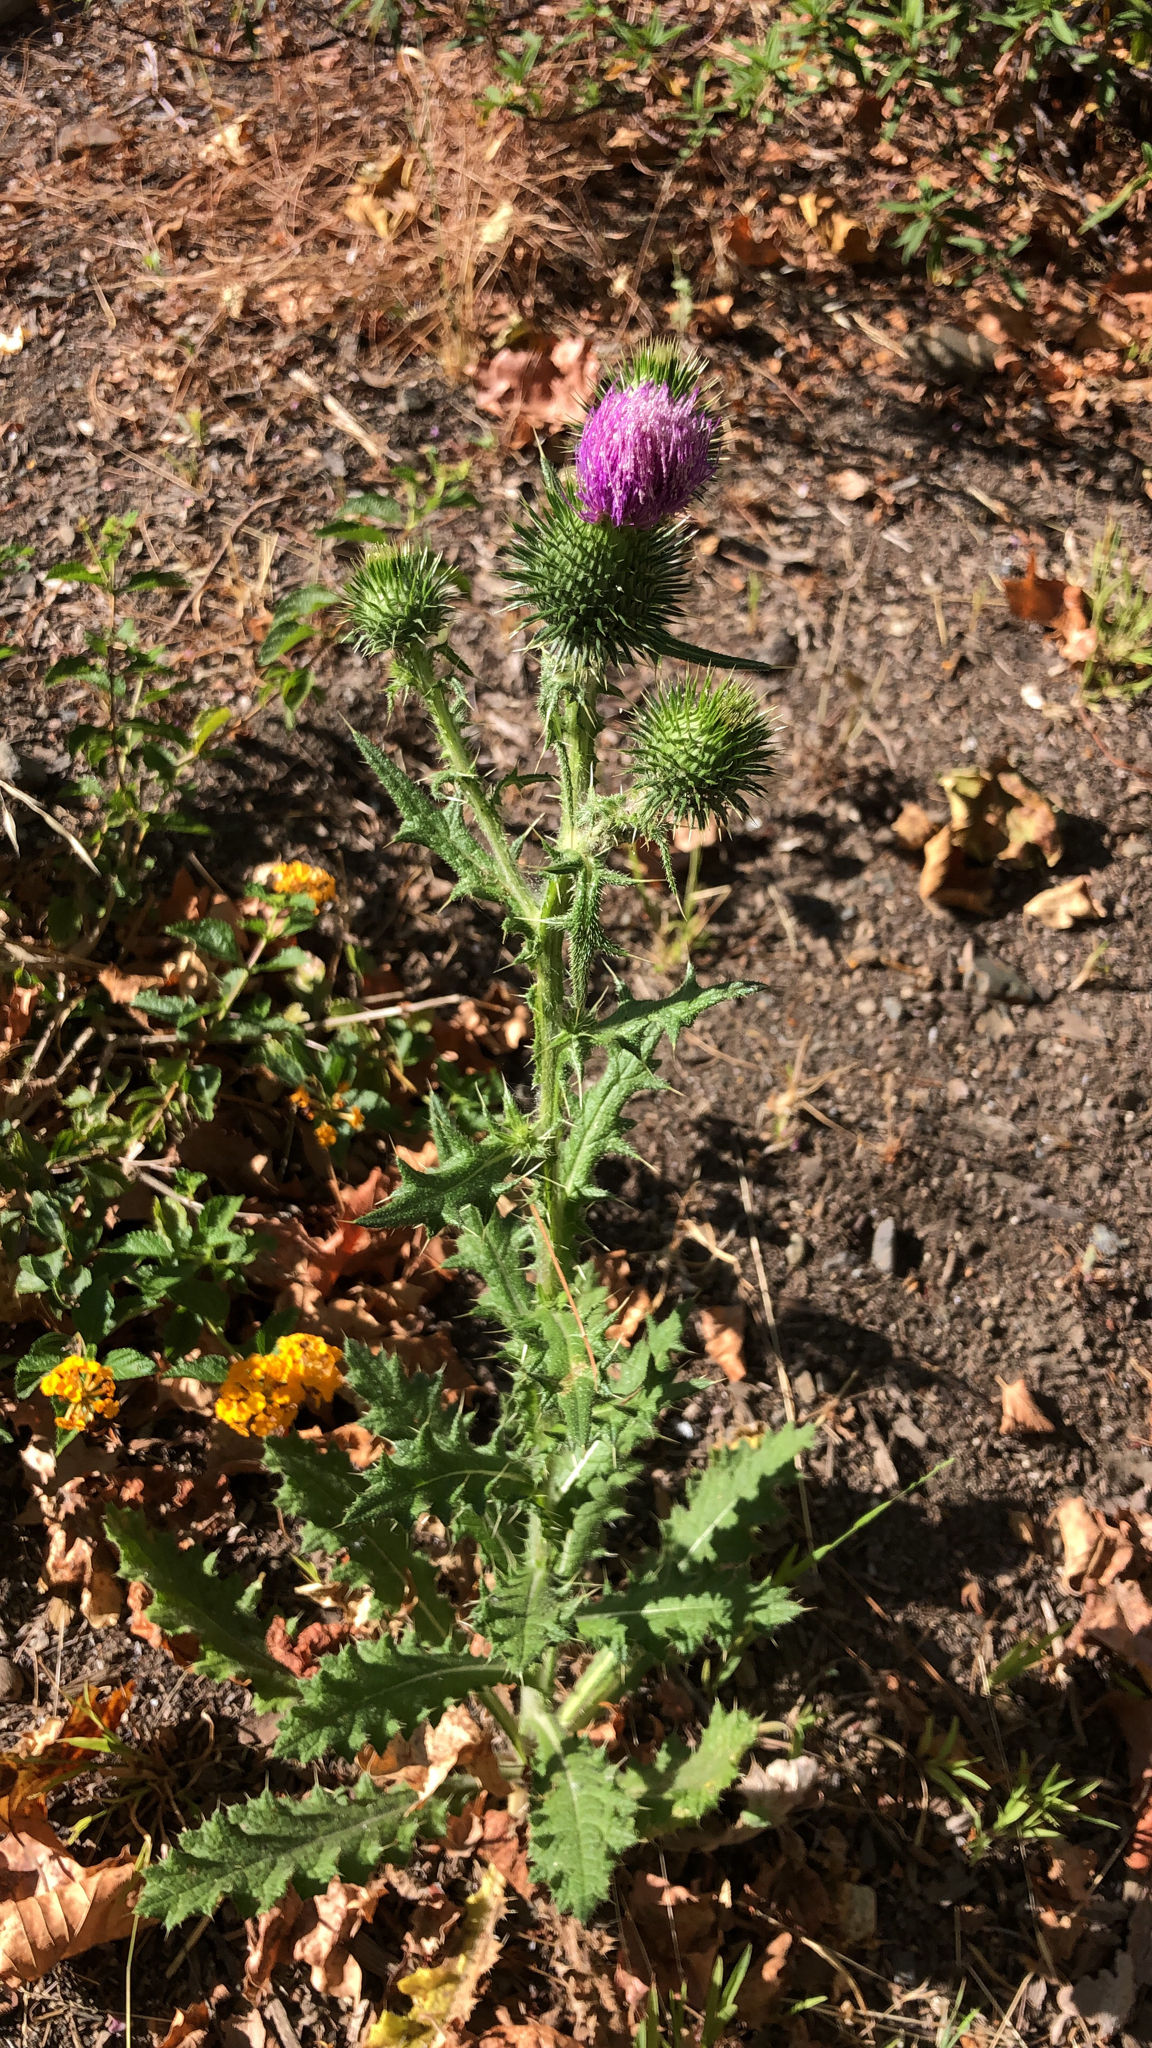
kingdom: Plantae
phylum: Tracheophyta
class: Magnoliopsida
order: Asterales
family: Asteraceae
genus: Cirsium
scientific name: Cirsium vulgare
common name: Bull thistle
